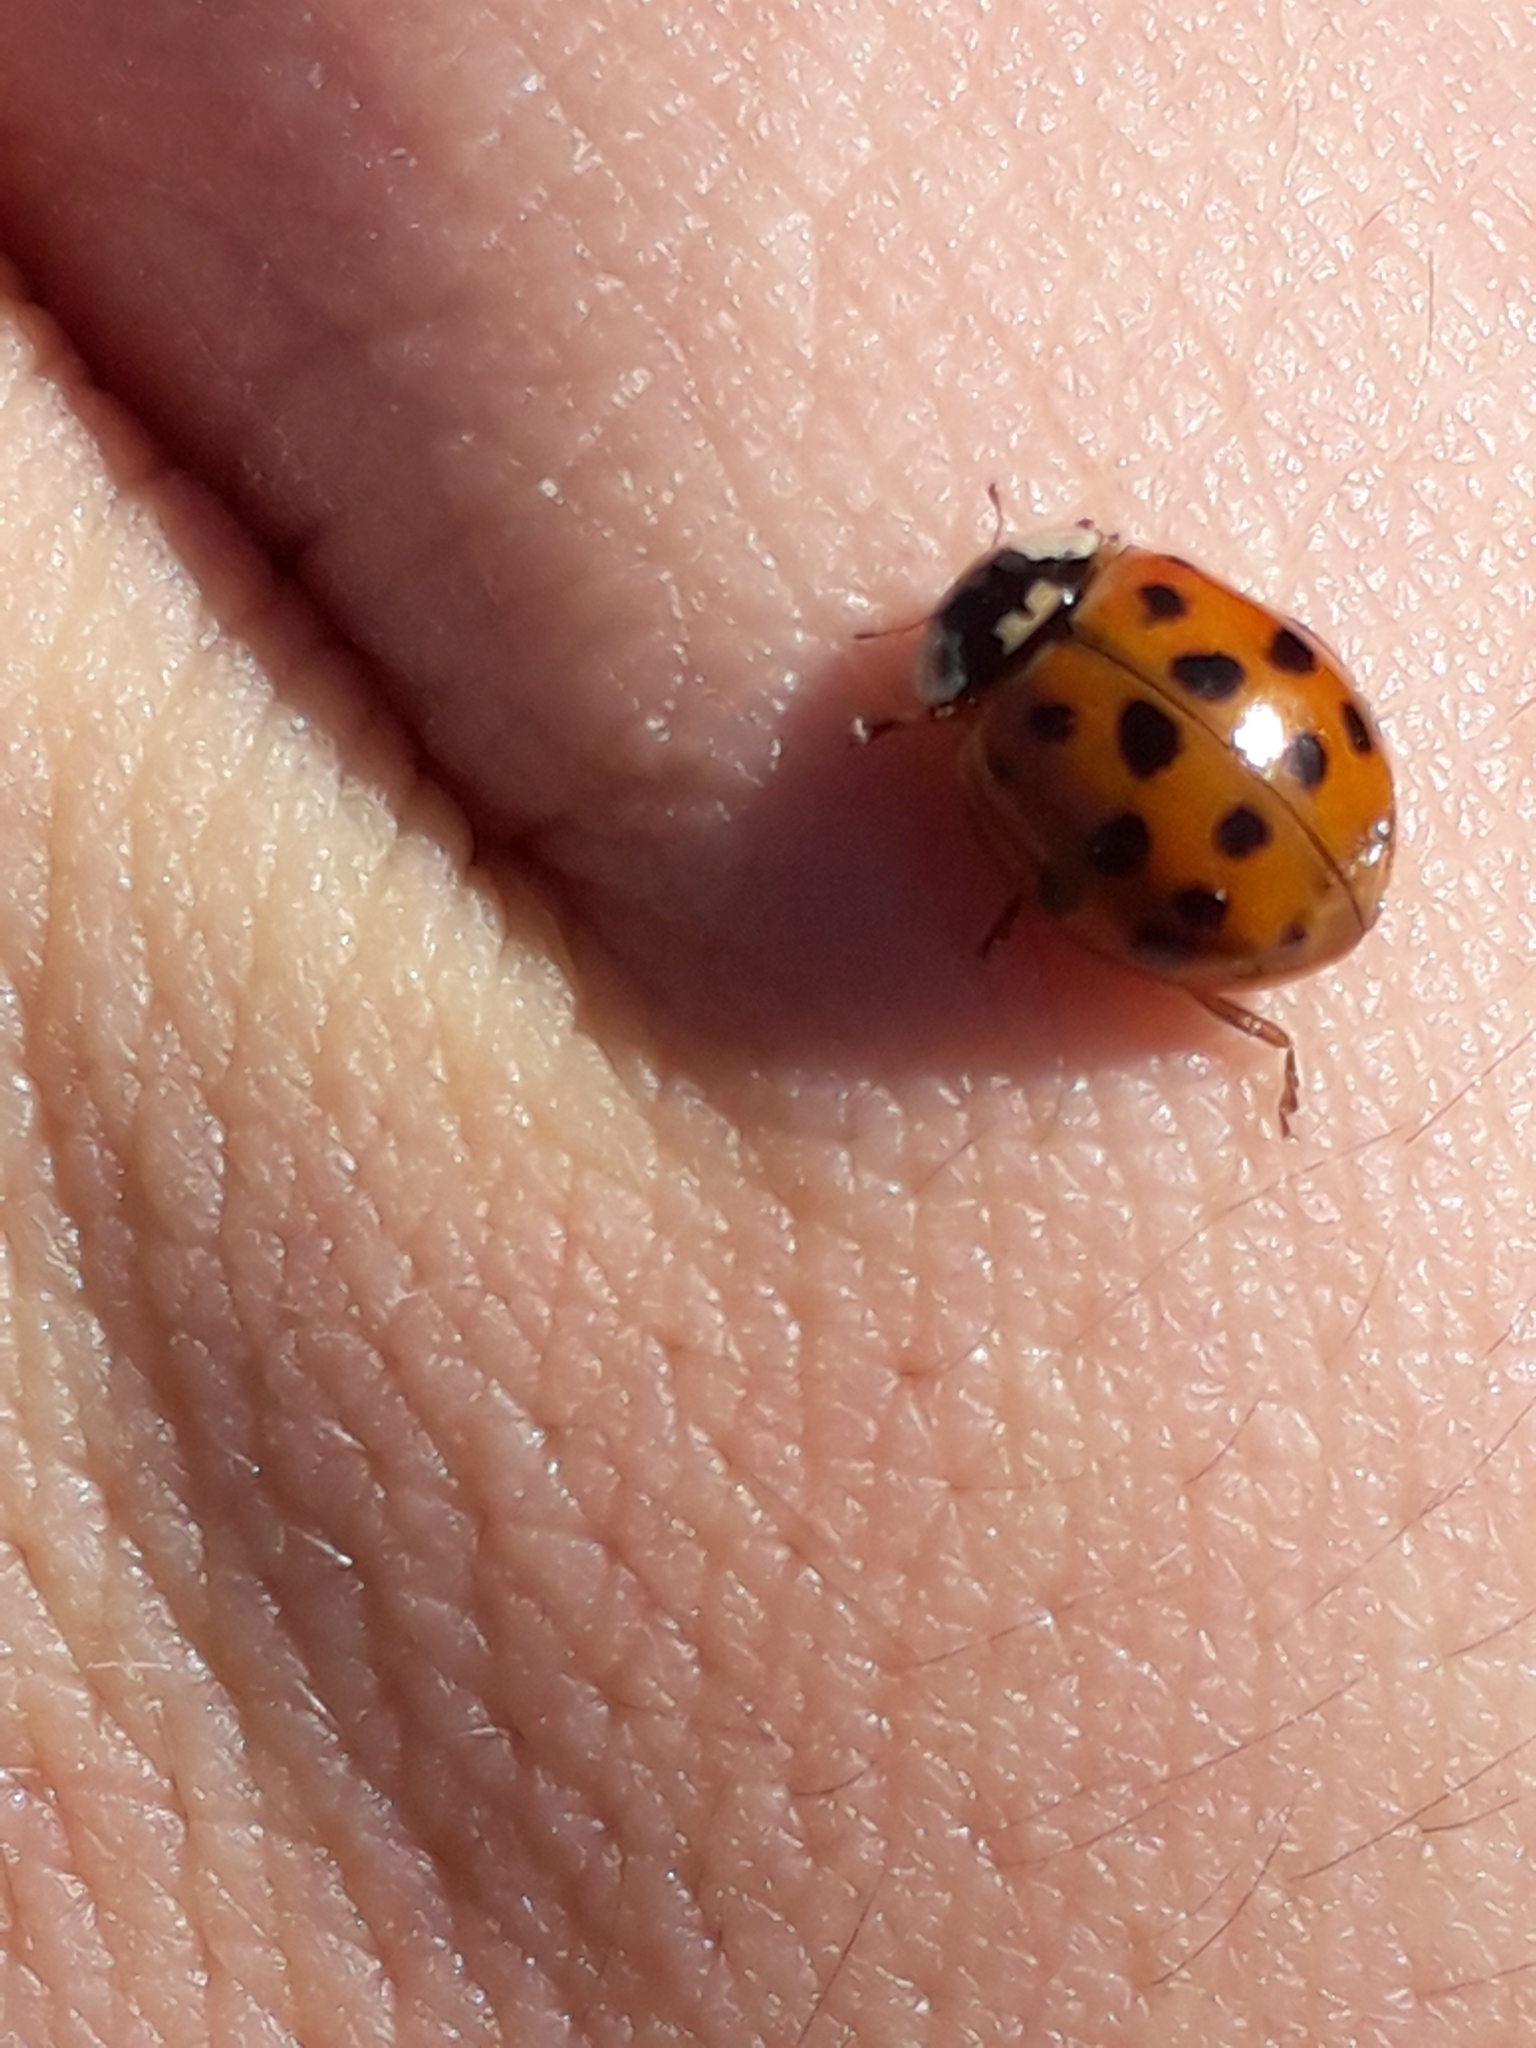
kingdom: Animalia
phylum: Arthropoda
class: Insecta
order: Coleoptera
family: Coccinellidae
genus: Harmonia
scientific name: Harmonia axyridis
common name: Harlequin ladybird
